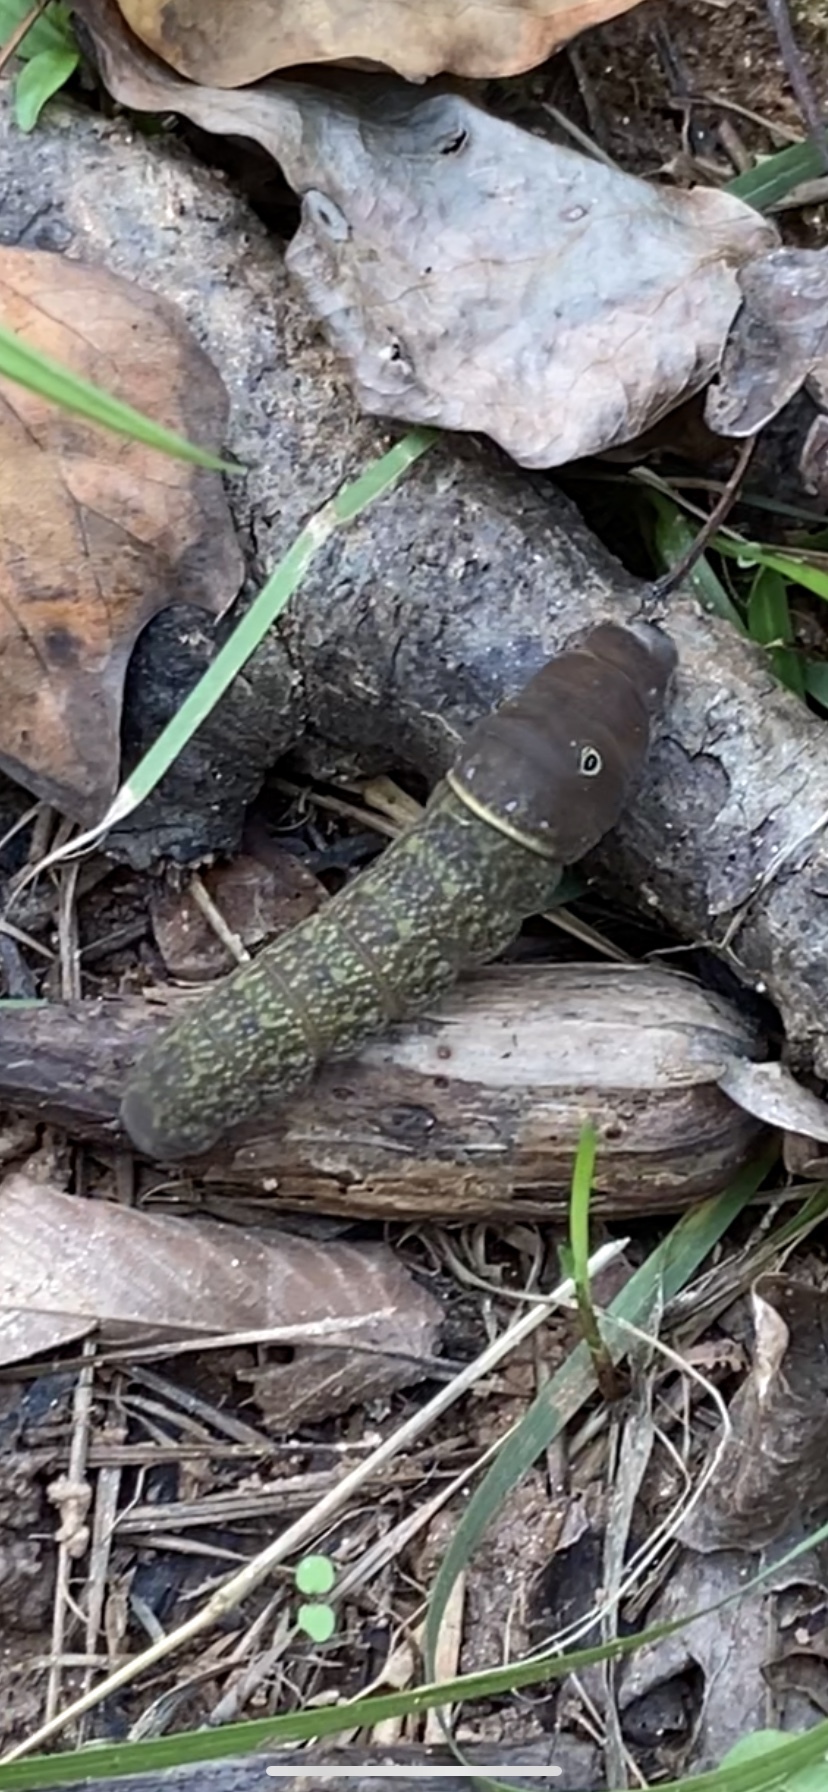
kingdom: Animalia
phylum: Arthropoda
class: Insecta
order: Lepidoptera
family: Papilionidae
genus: Papilio
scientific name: Papilio glaucus
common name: Tiger swallowtail
